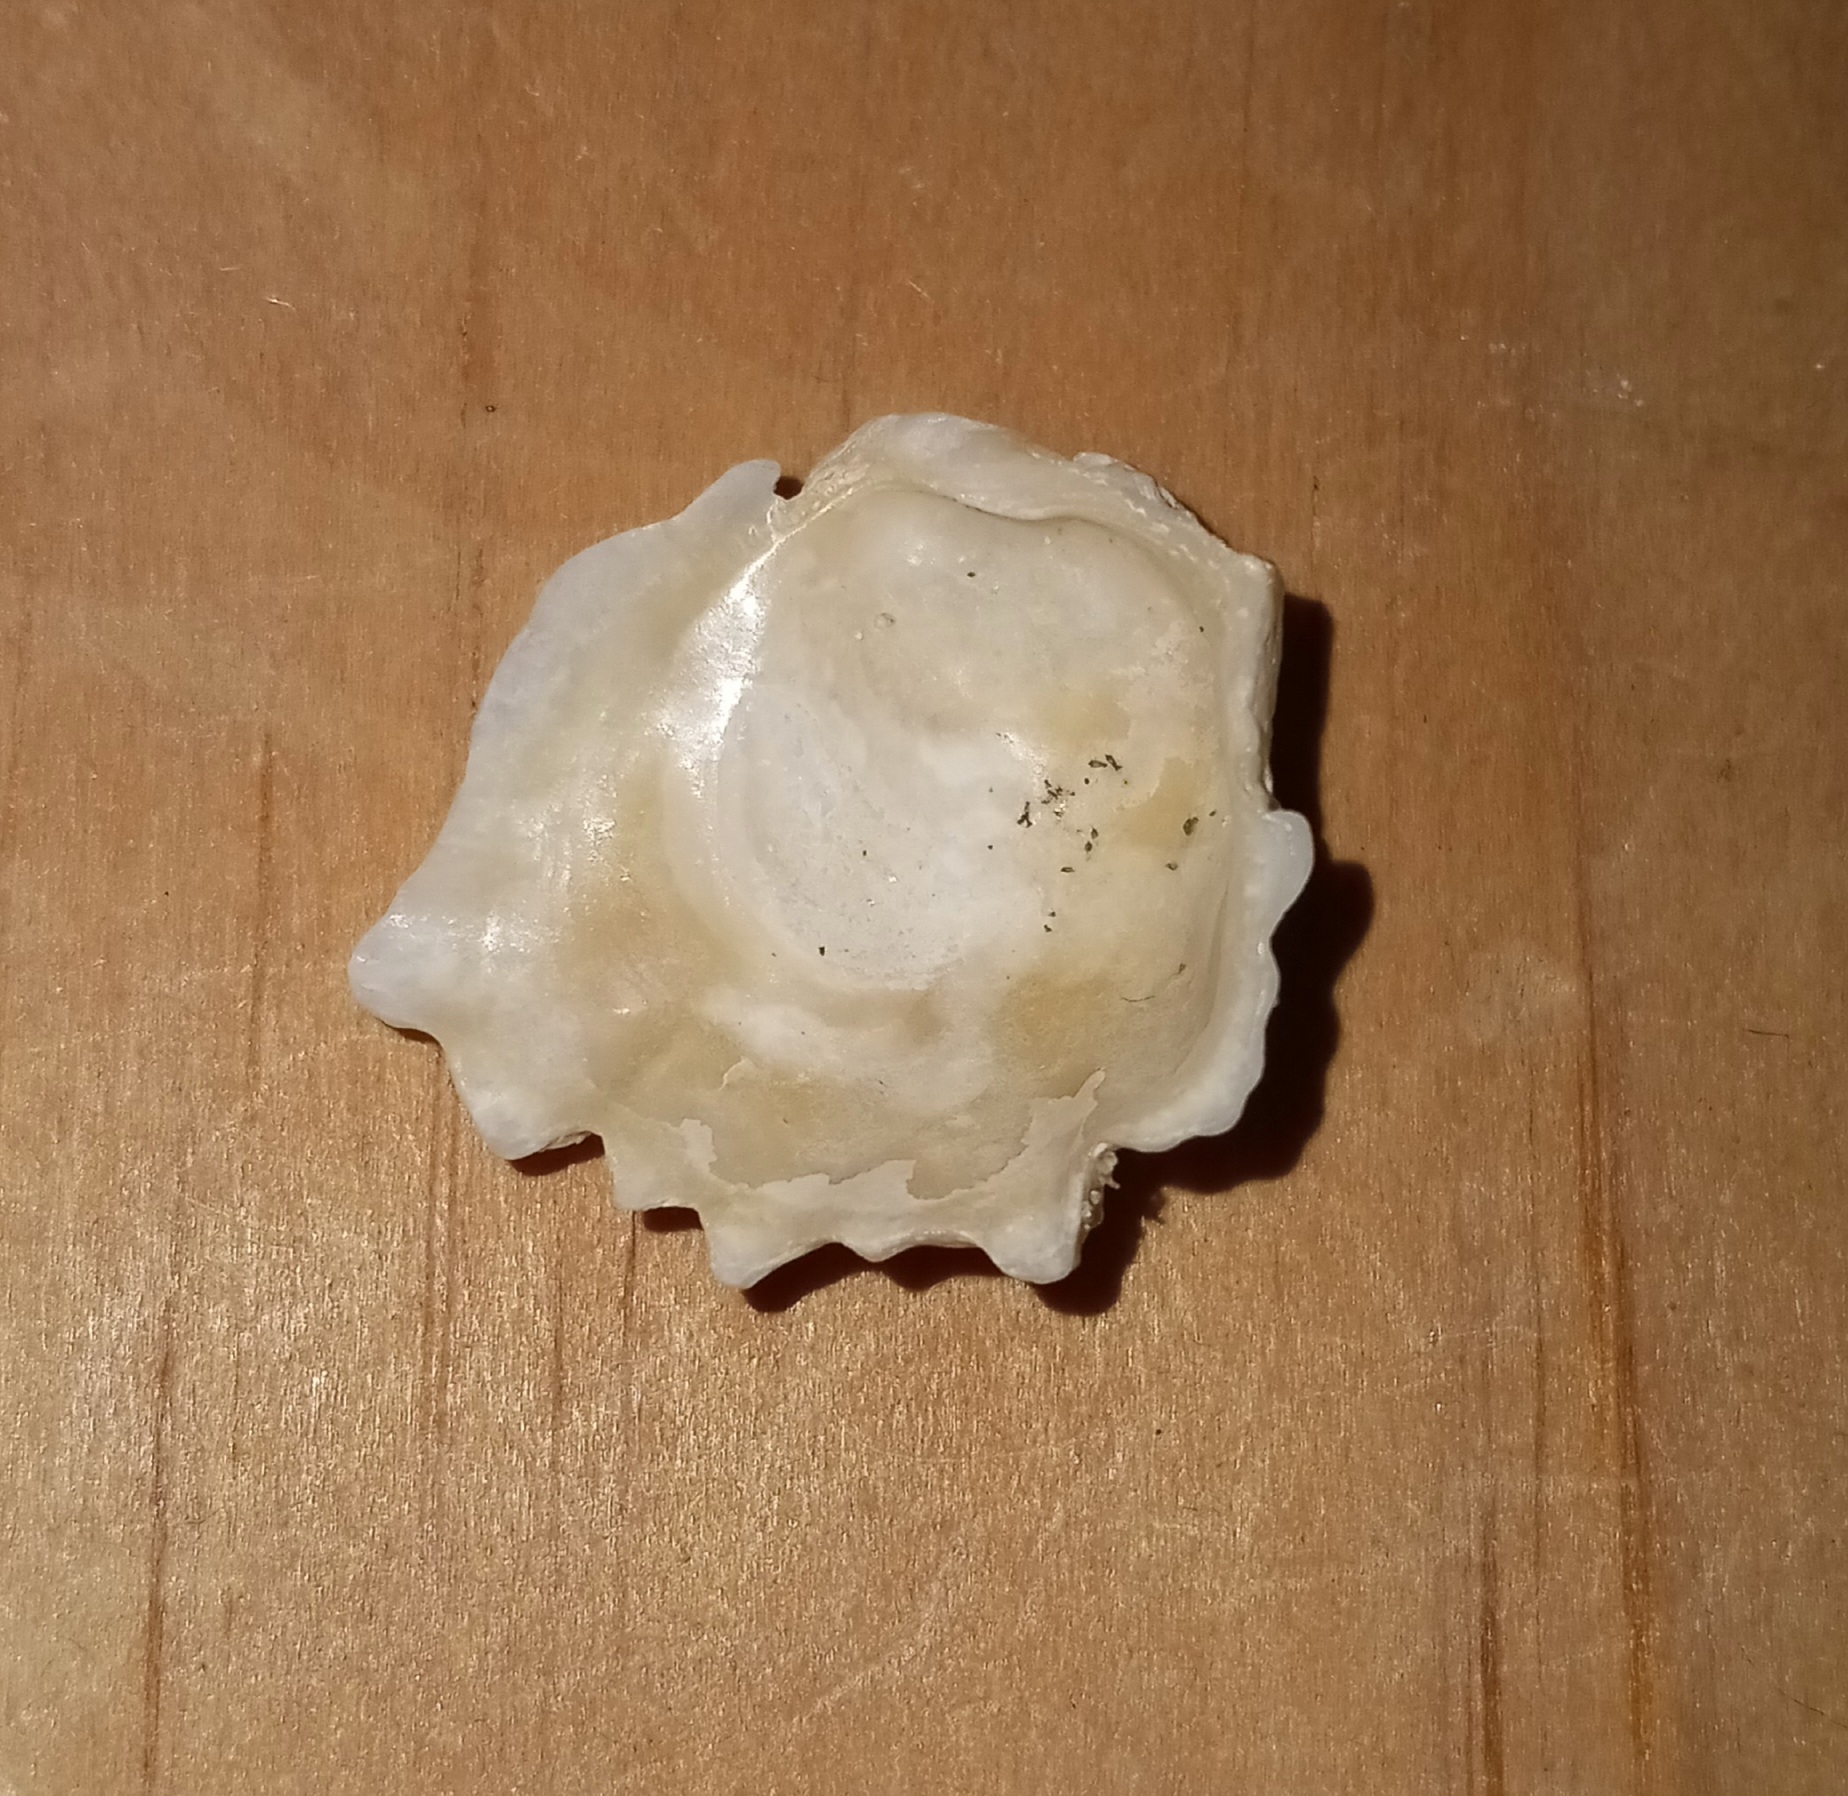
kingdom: Animalia
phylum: Mollusca
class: Bivalvia
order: Pectinida
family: Plicatulidae
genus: Plicatula
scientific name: Plicatula gibbosa
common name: Atlantic kitten's paw
